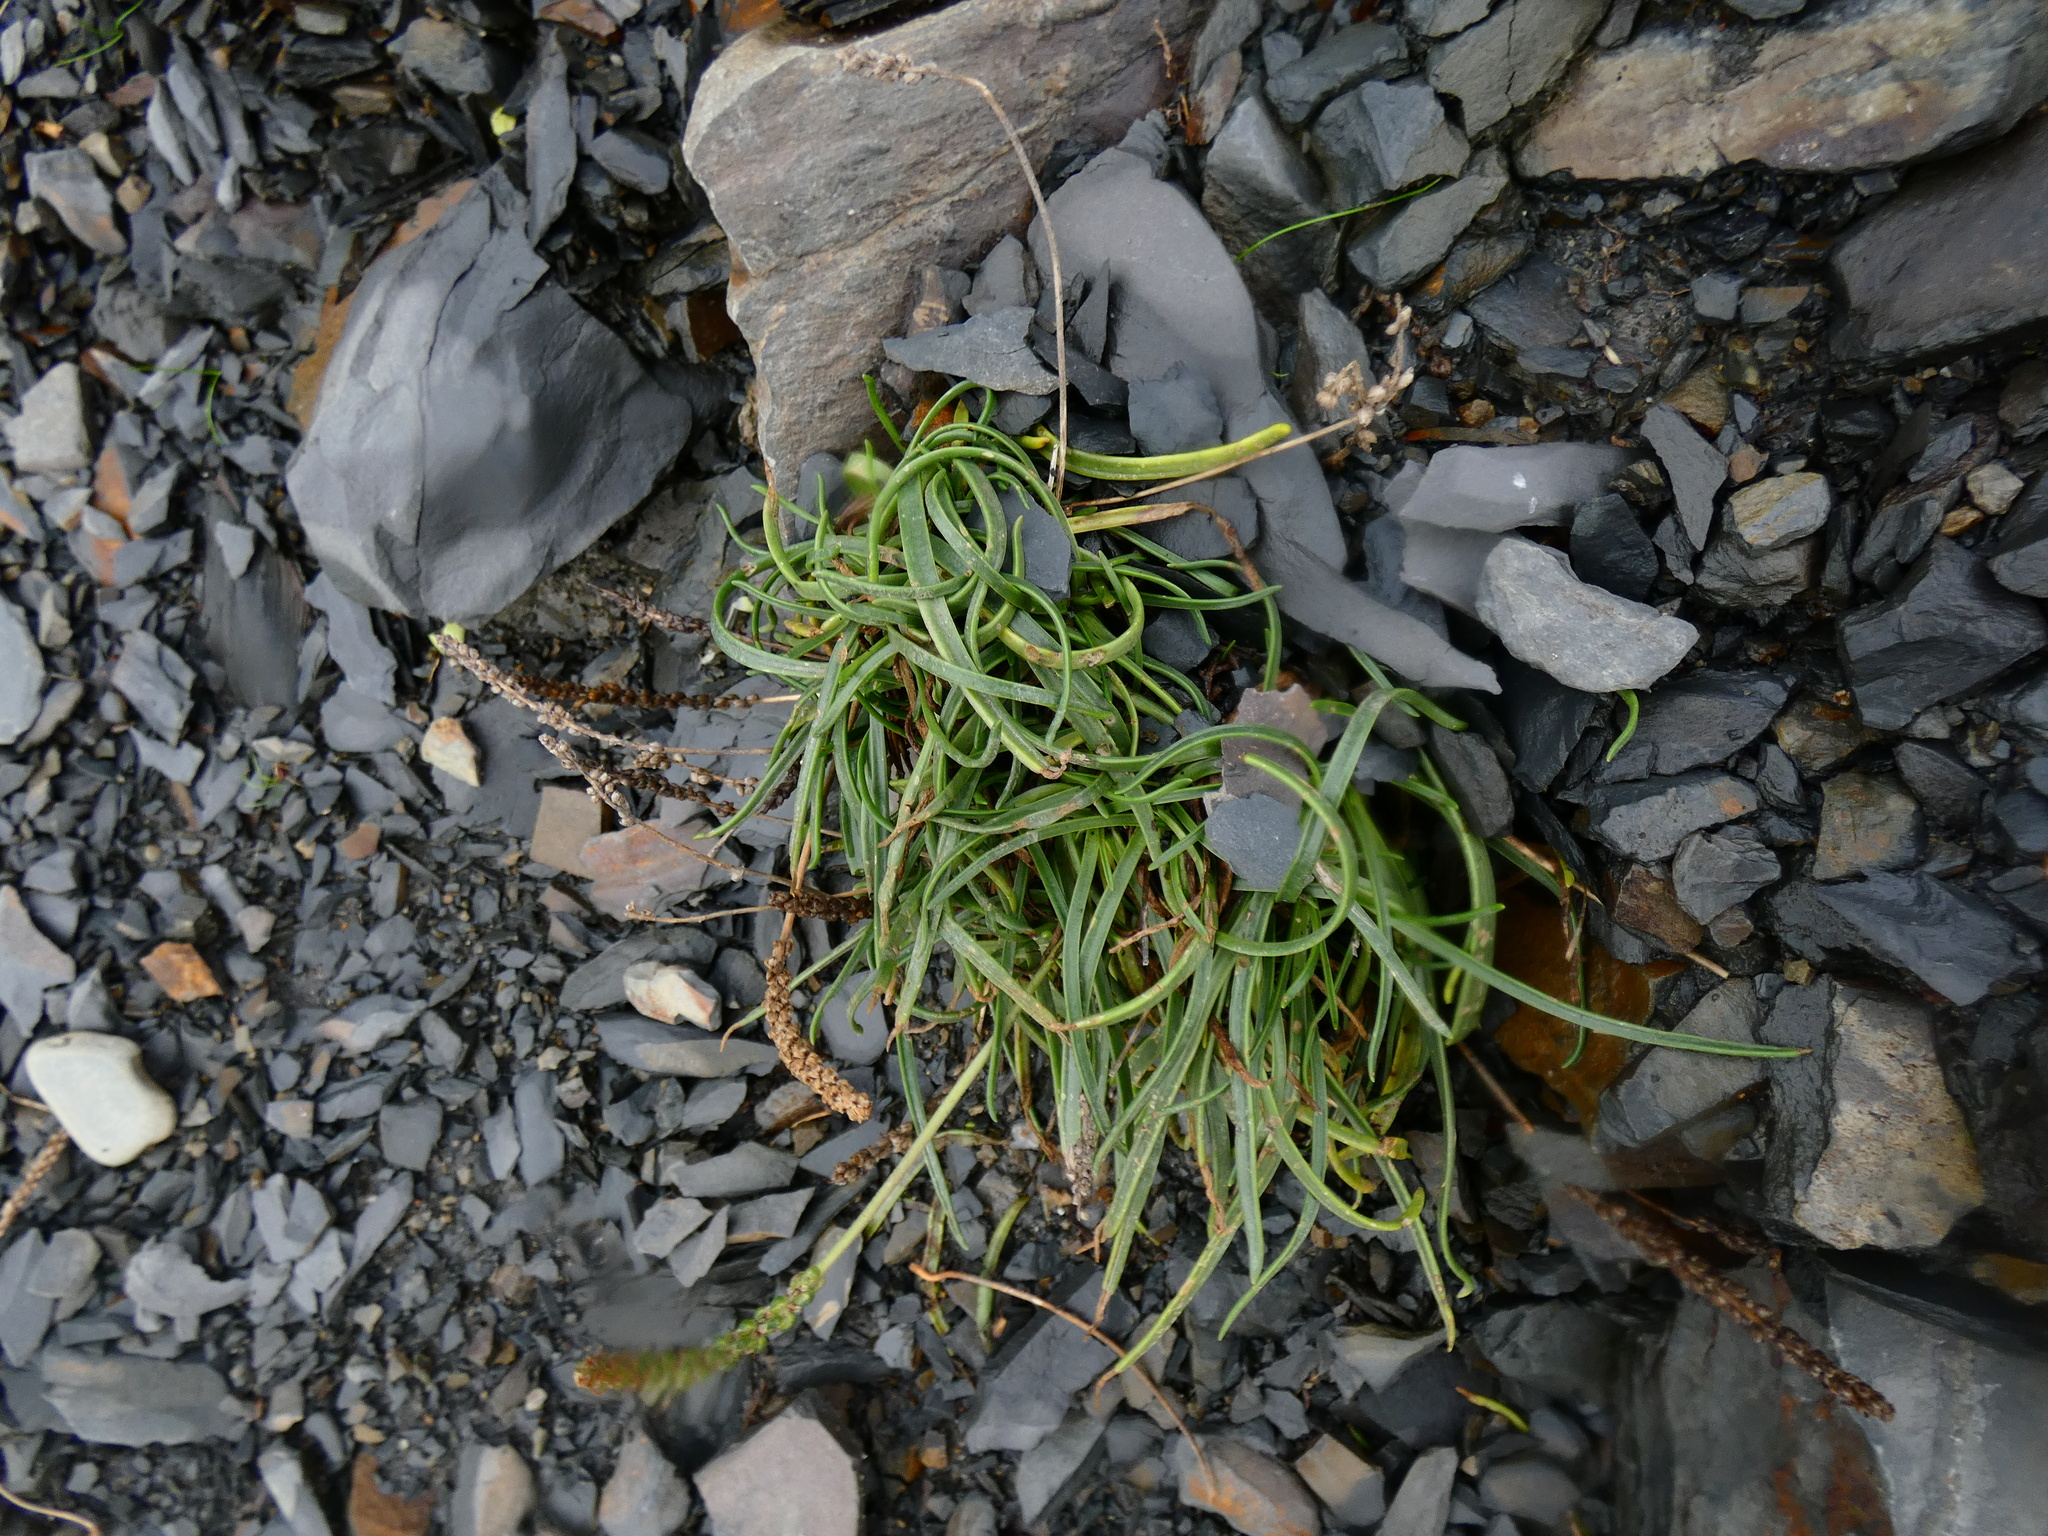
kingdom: Plantae
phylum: Tracheophyta
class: Magnoliopsida
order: Lamiales
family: Plantaginaceae
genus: Plantago
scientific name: Plantago maritima
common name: Sea plantain
